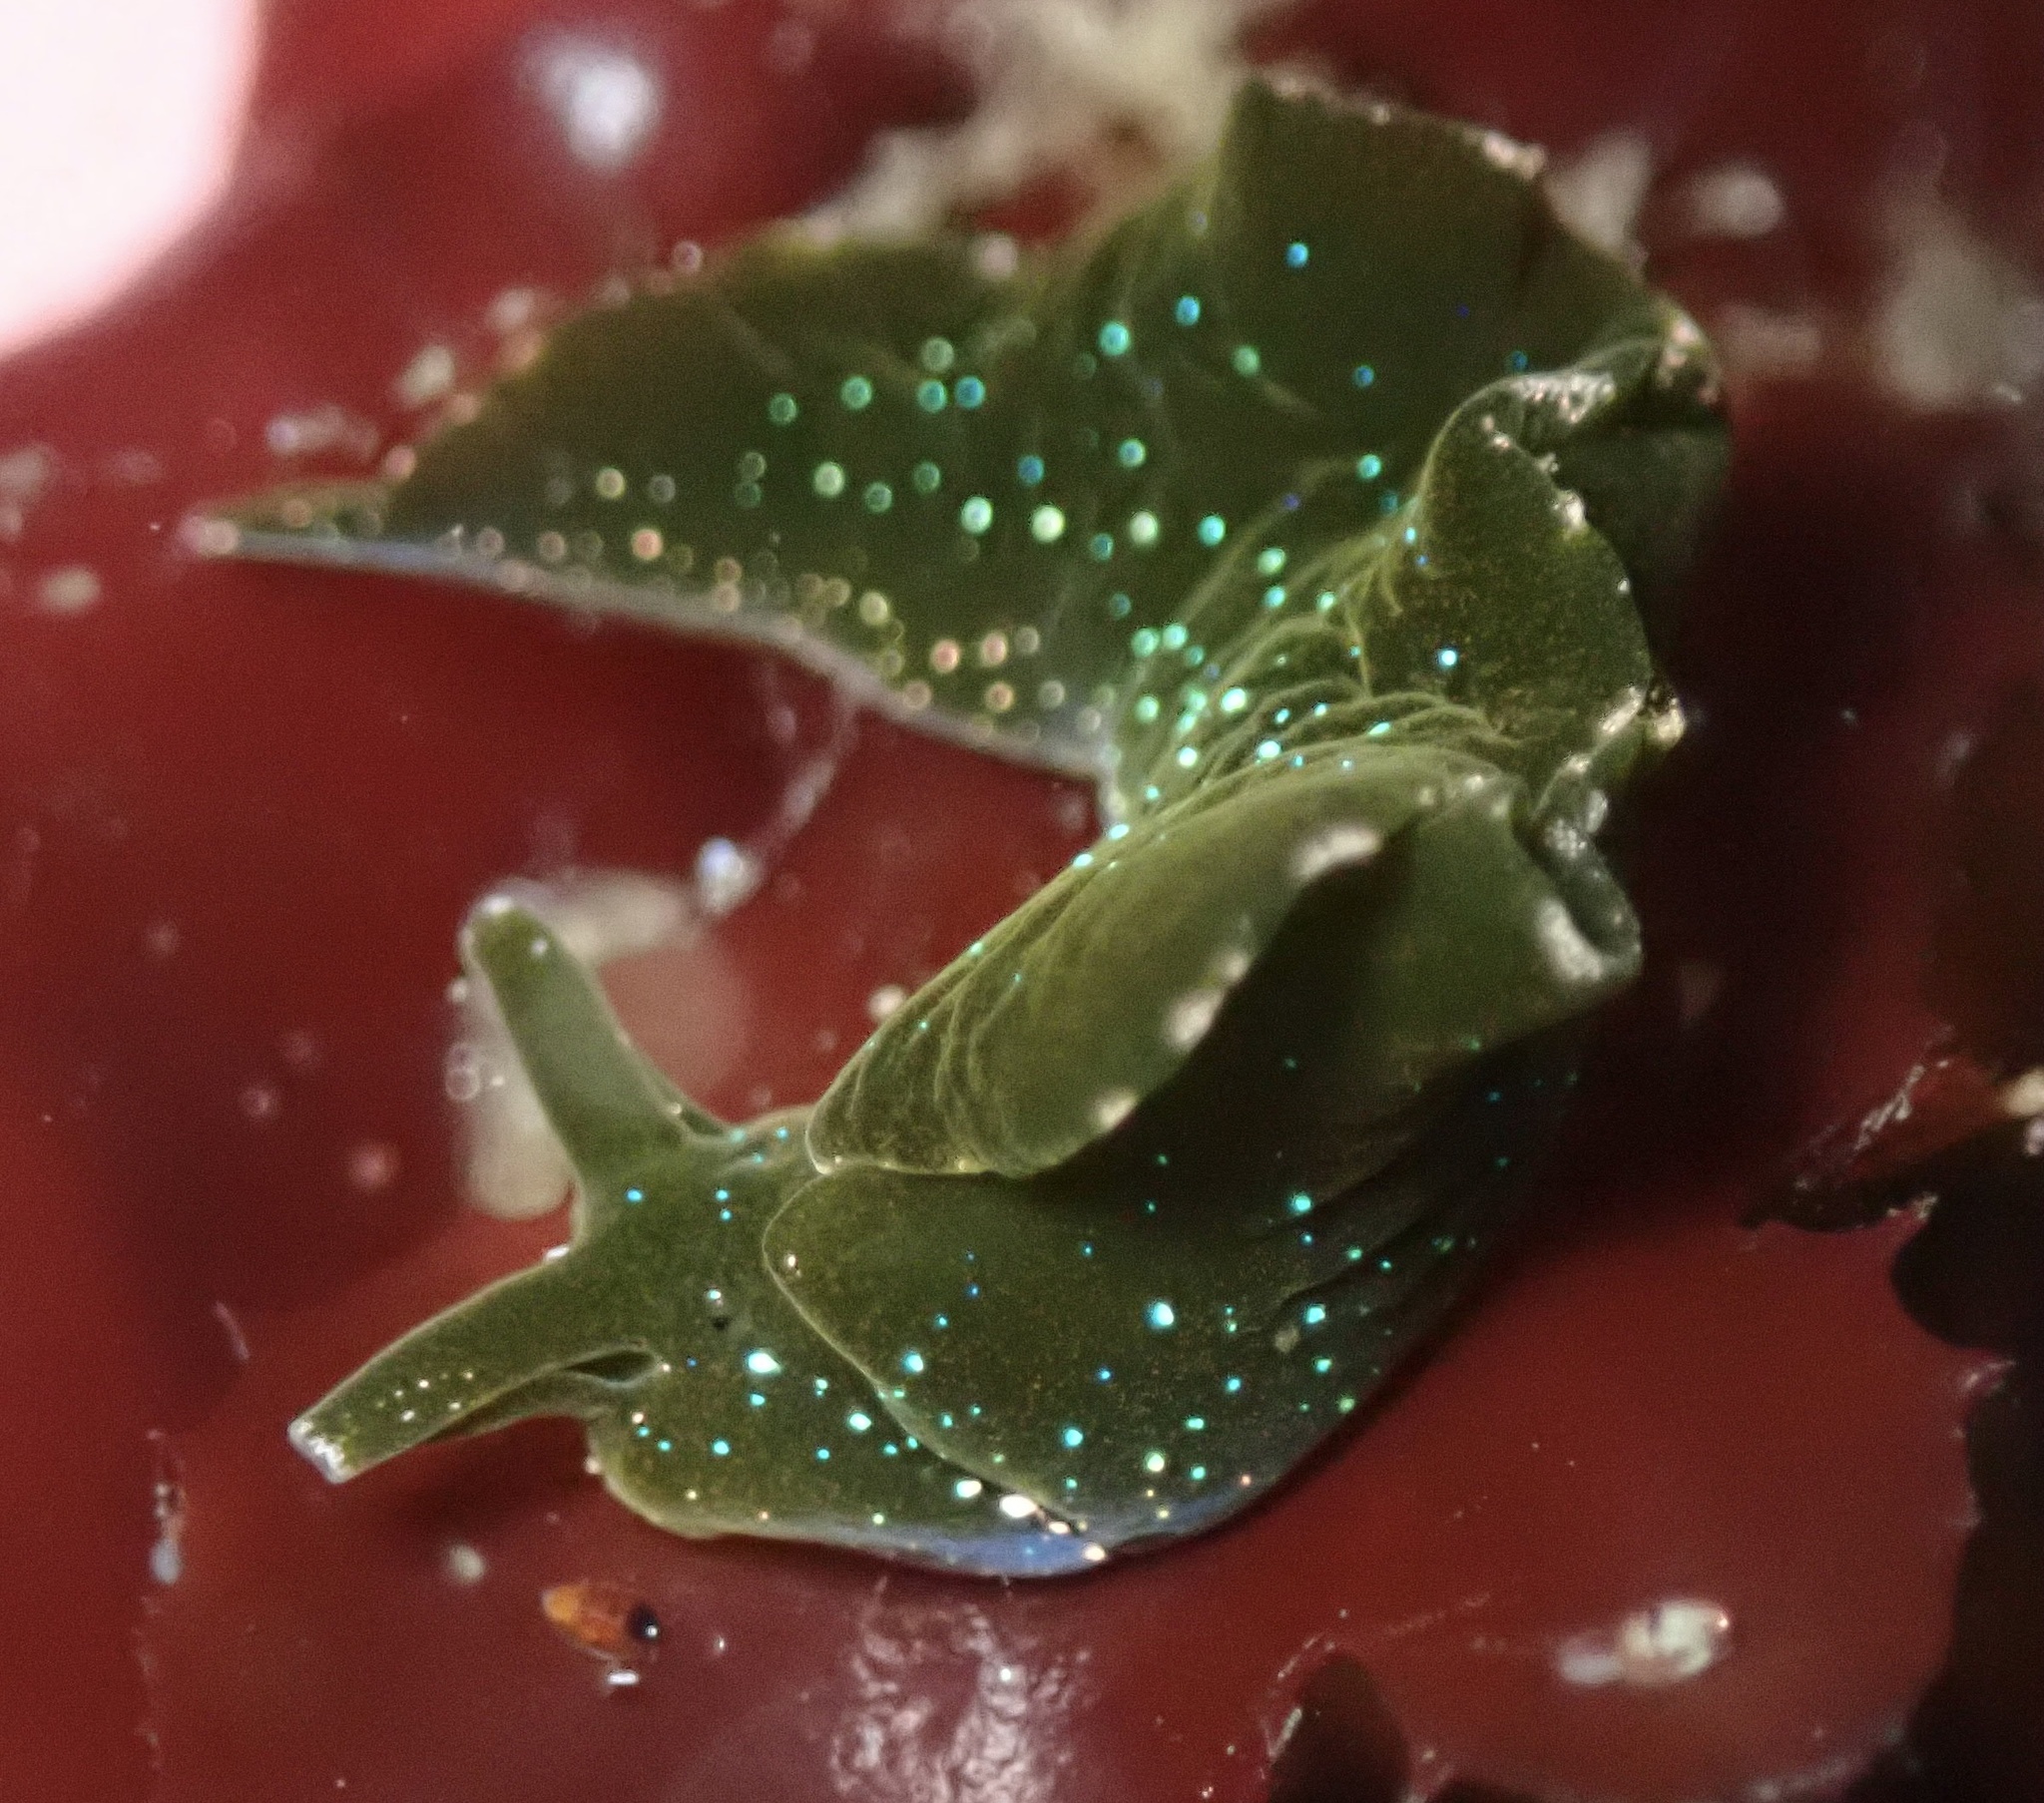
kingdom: Animalia
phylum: Mollusca
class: Gastropoda
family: Plakobranchidae
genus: Elysia
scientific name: Elysia hedgpethi
